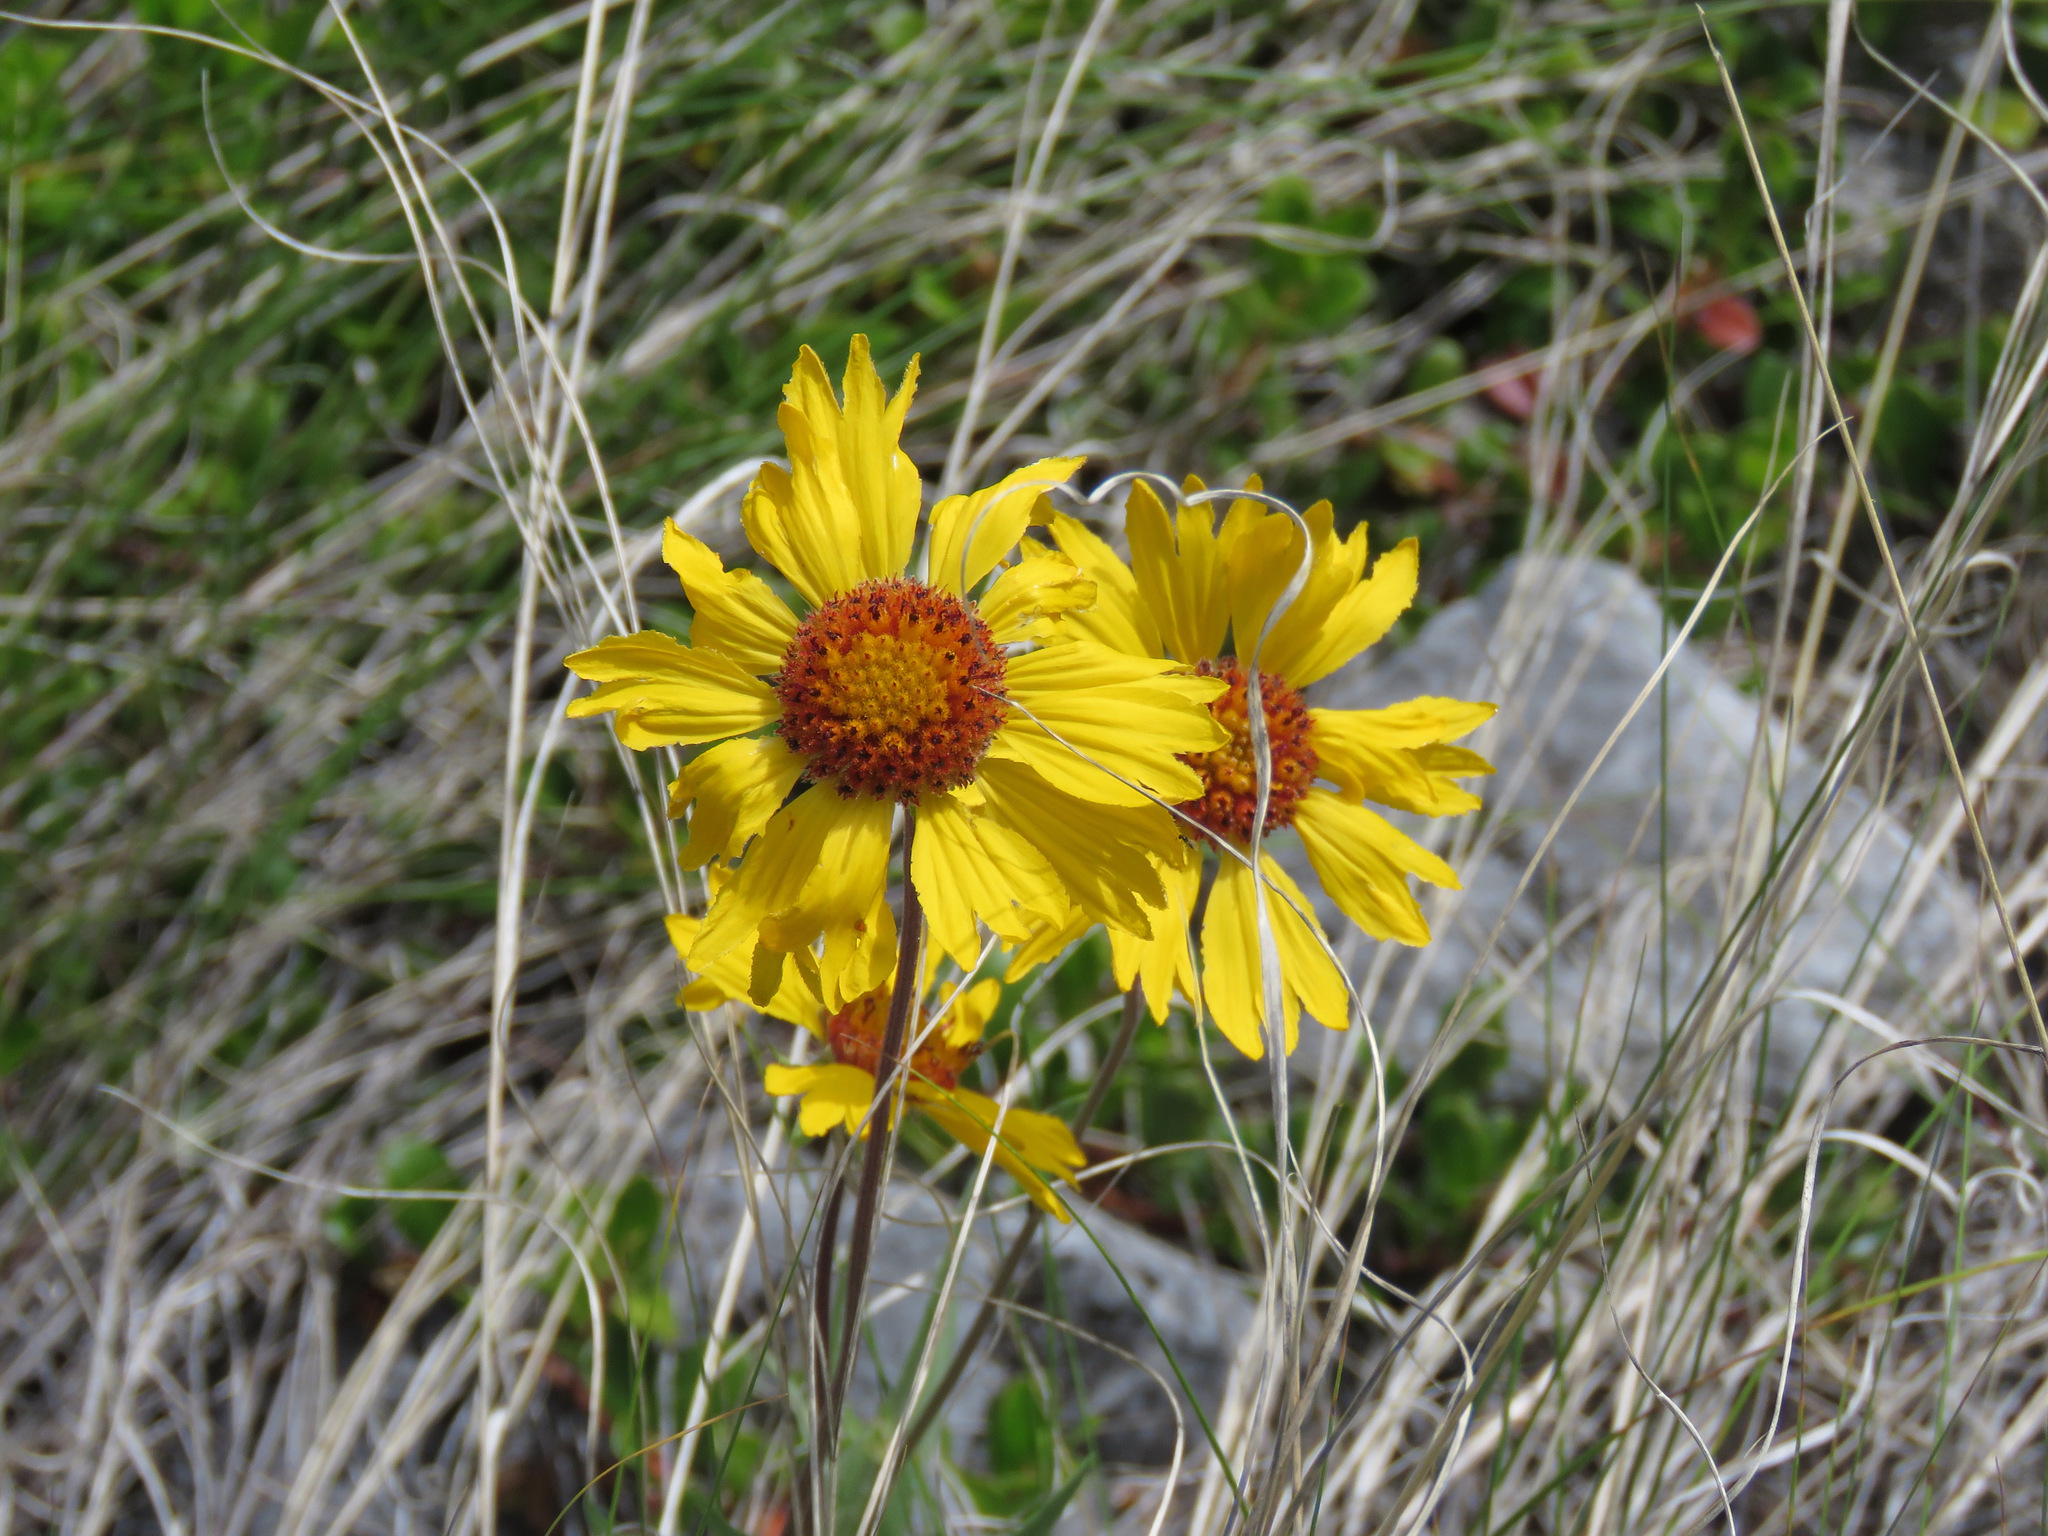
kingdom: Plantae
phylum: Tracheophyta
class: Magnoliopsida
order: Asterales
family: Asteraceae
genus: Gaillardia
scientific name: Gaillardia aristata
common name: Blanket-flower
